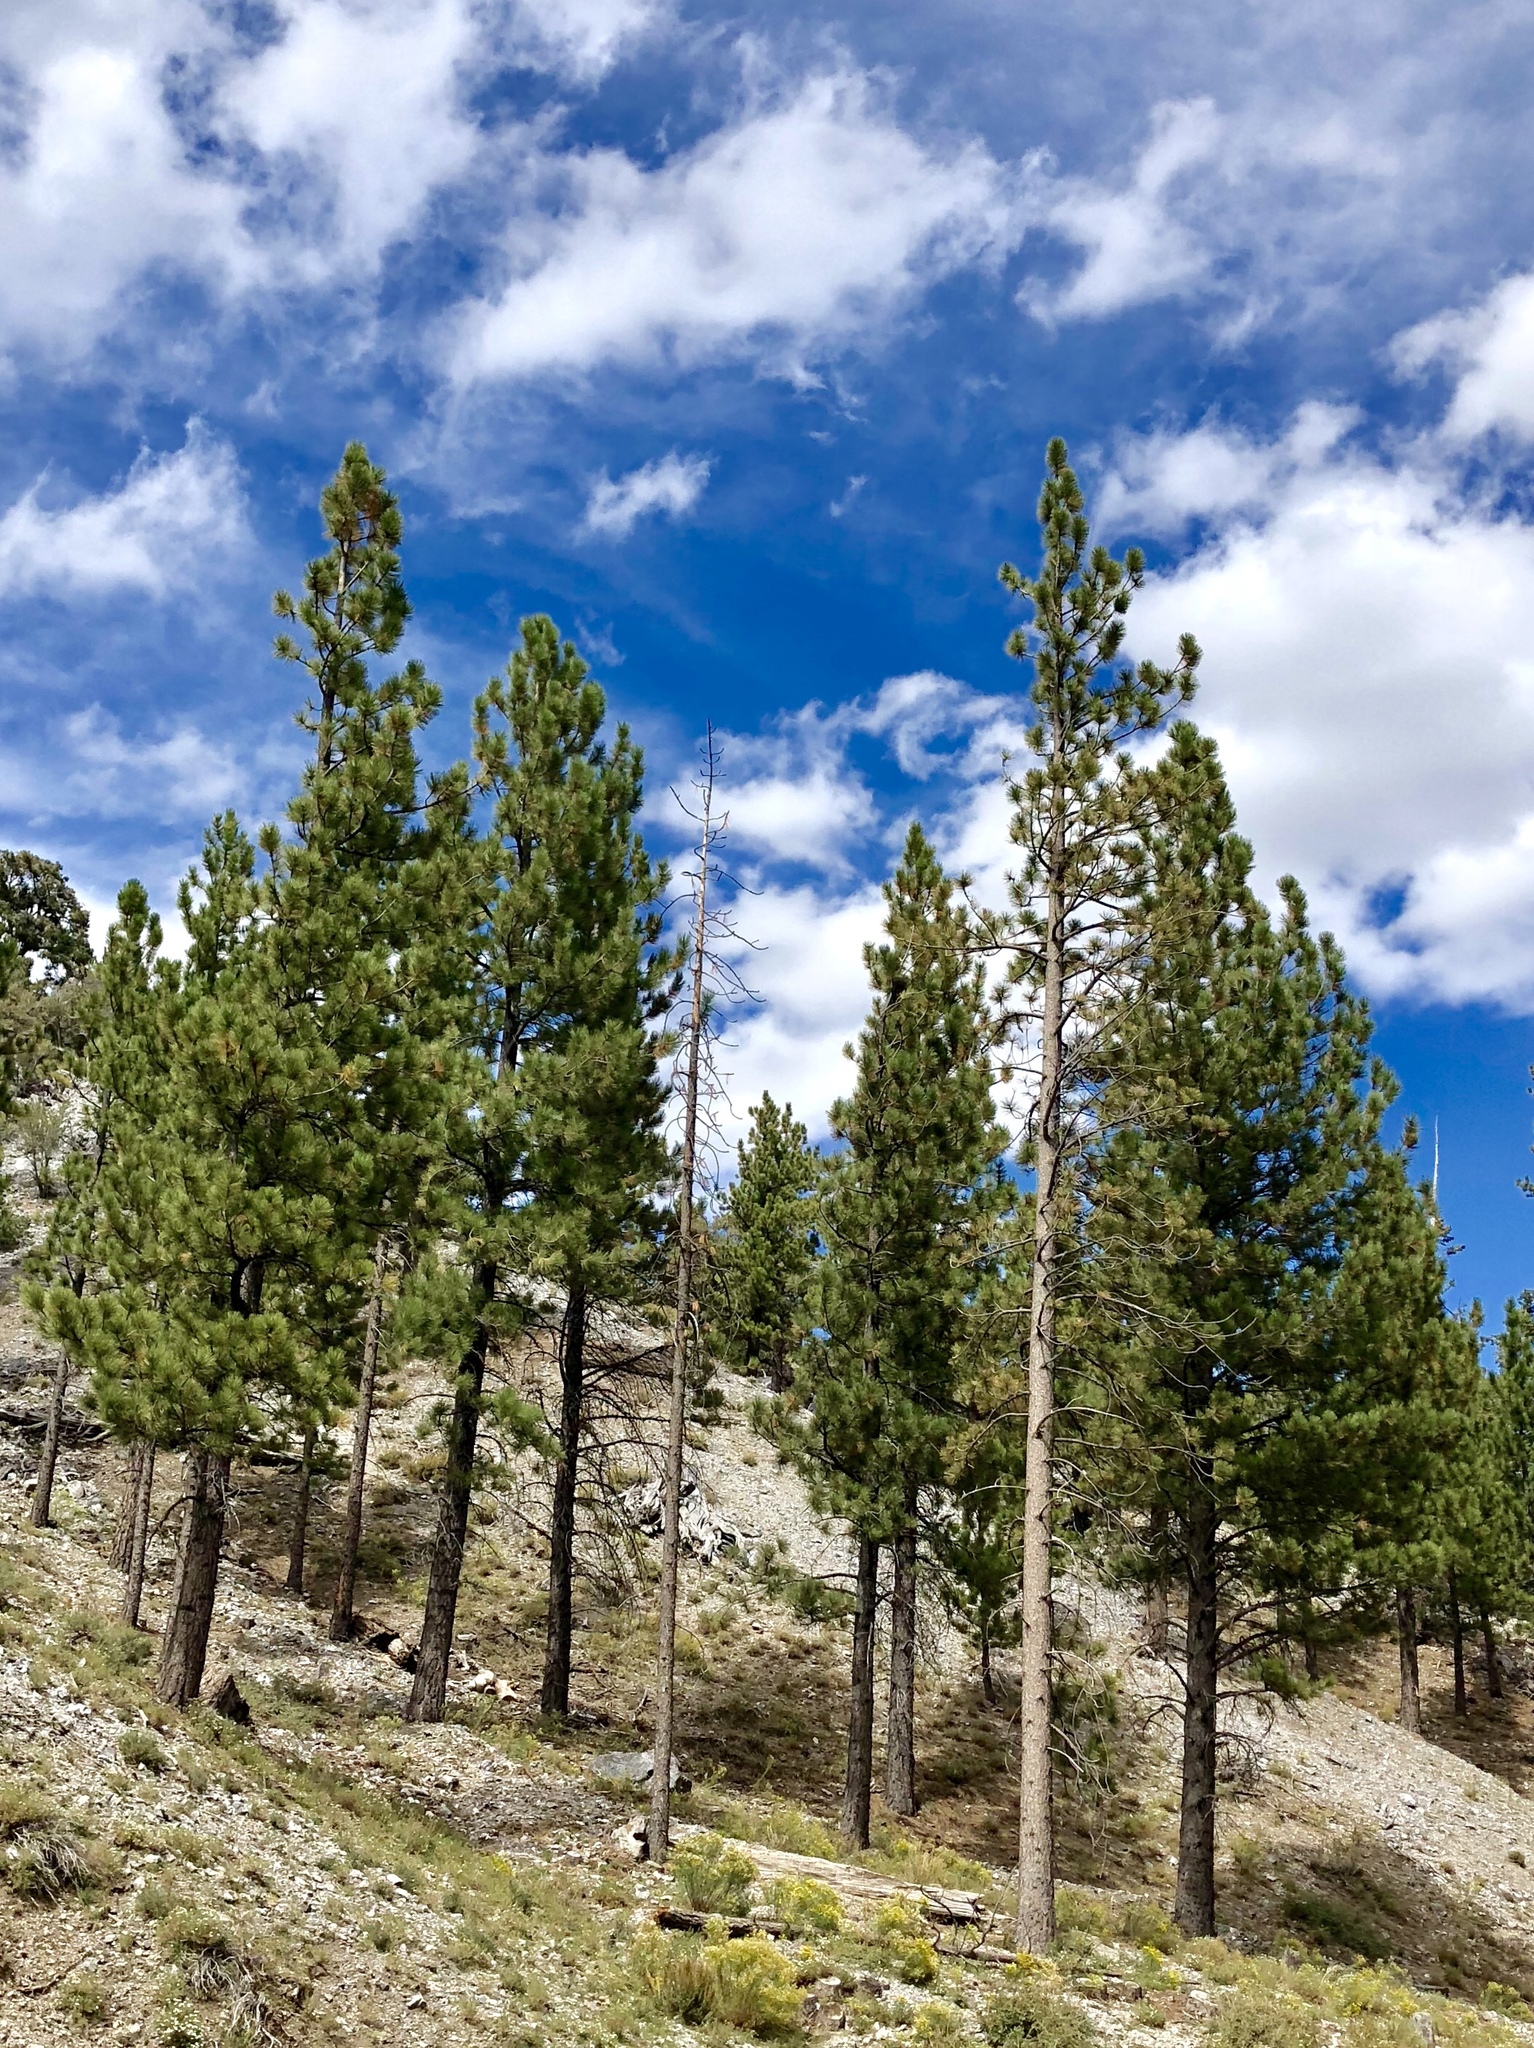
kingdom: Plantae
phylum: Tracheophyta
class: Pinopsida
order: Pinales
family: Pinaceae
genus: Pinus
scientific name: Pinus ponderosa
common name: Western yellow-pine
